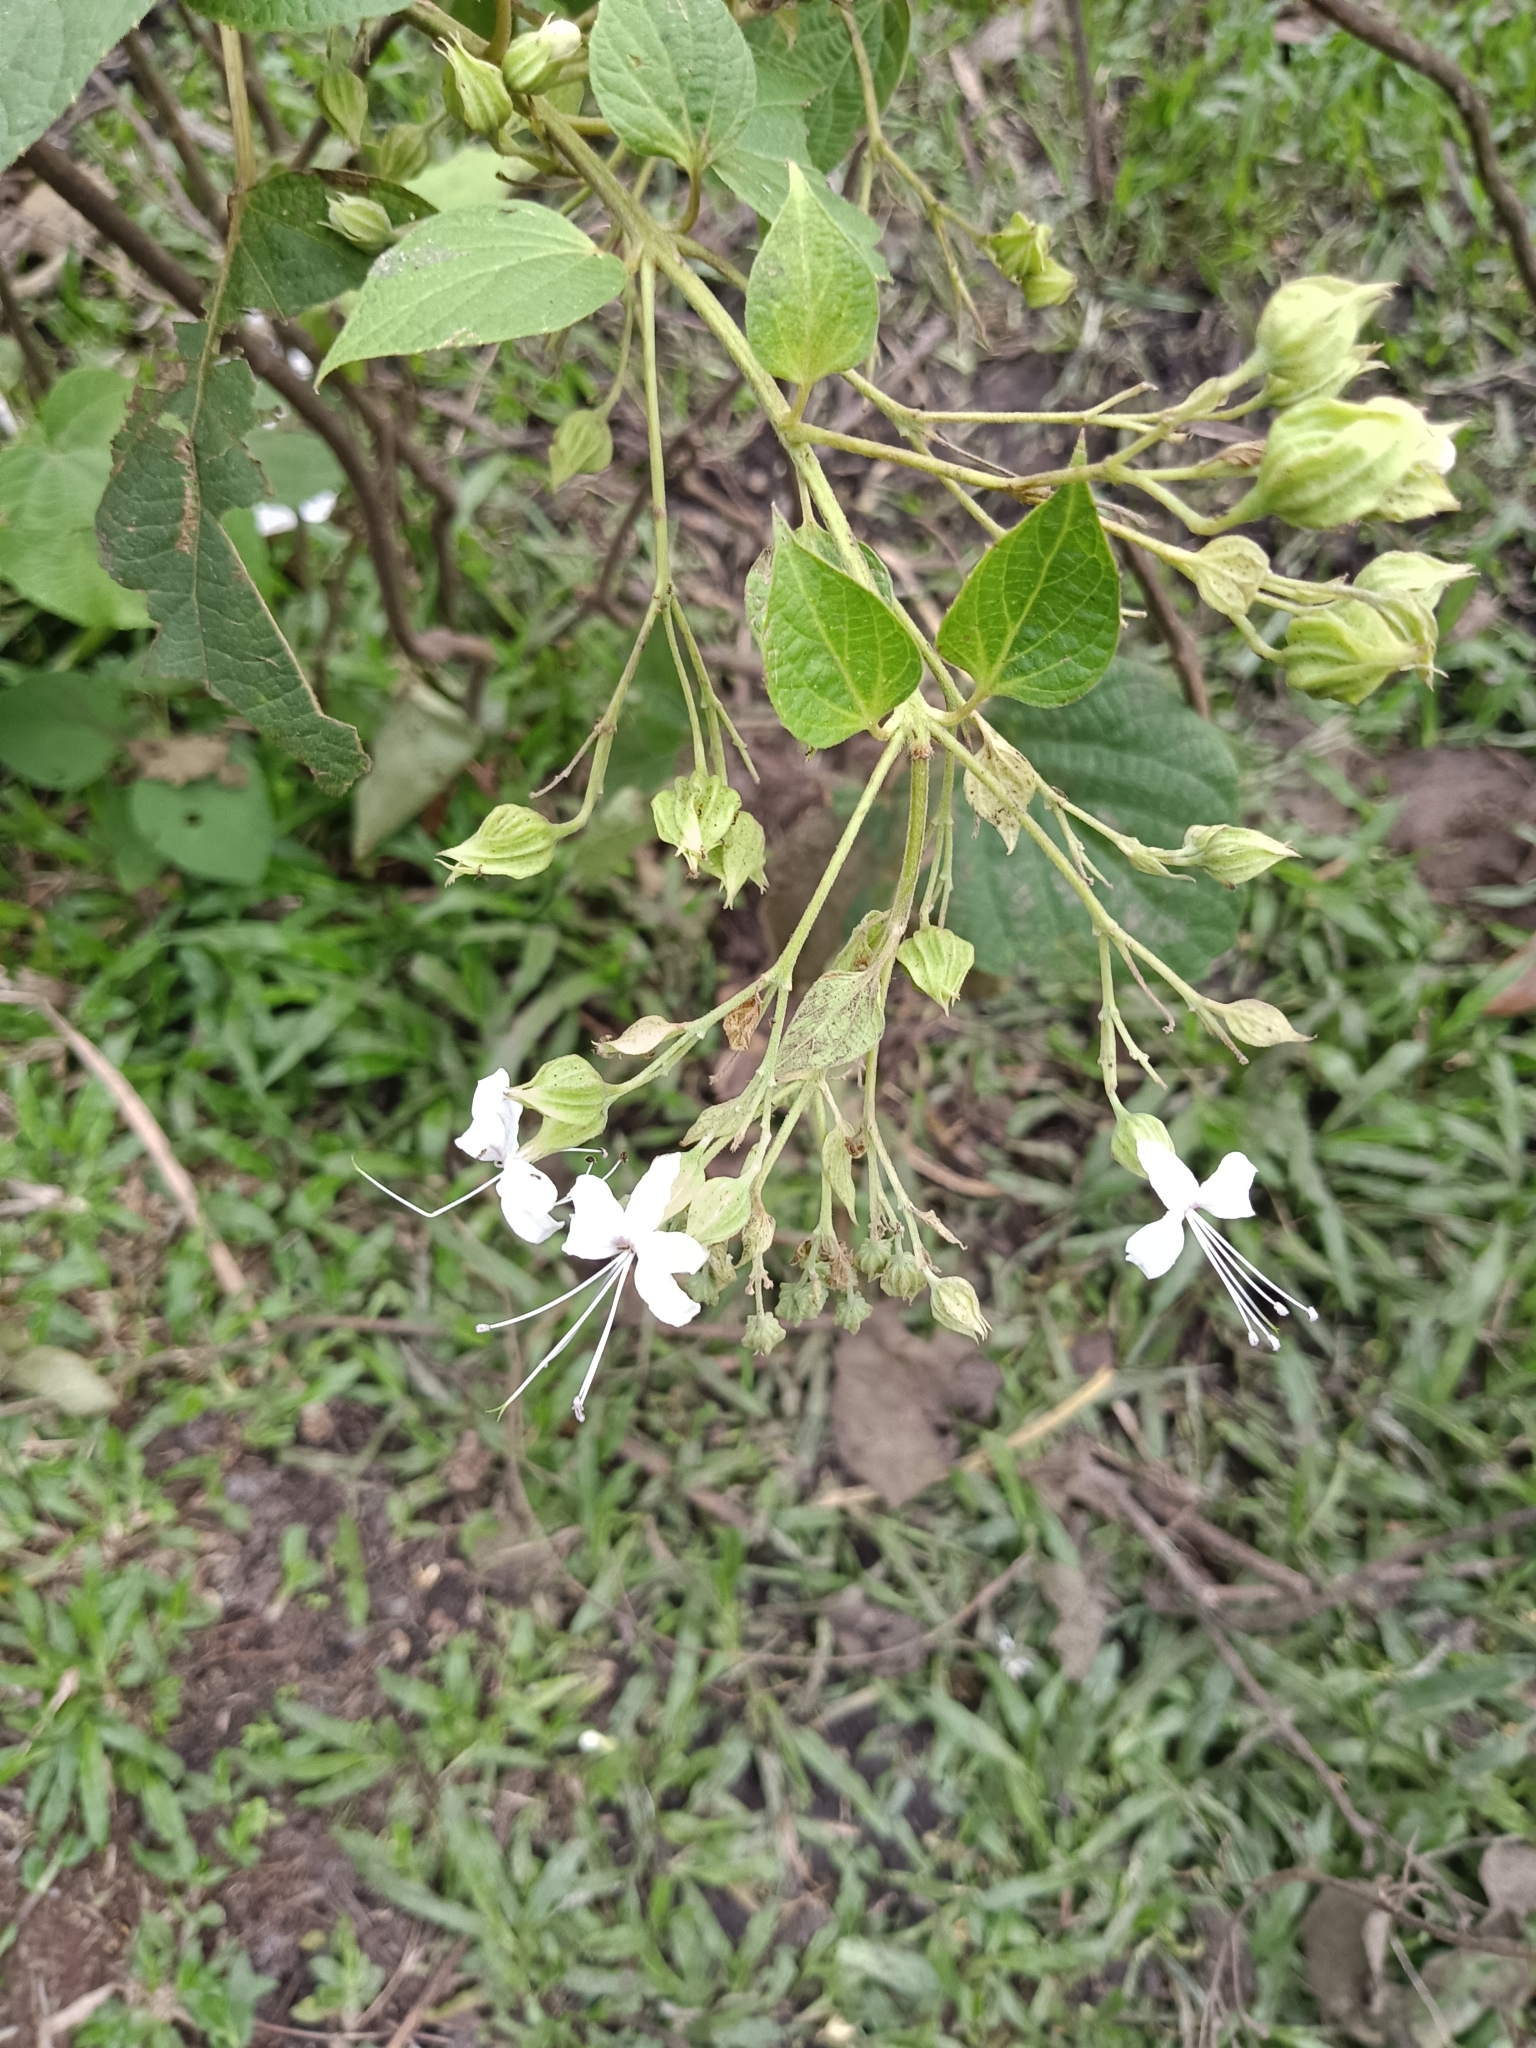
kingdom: Plantae
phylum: Tracheophyta
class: Magnoliopsida
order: Lamiales
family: Lamiaceae
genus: Clerodendrum
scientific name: Clerodendrum infortunatum
